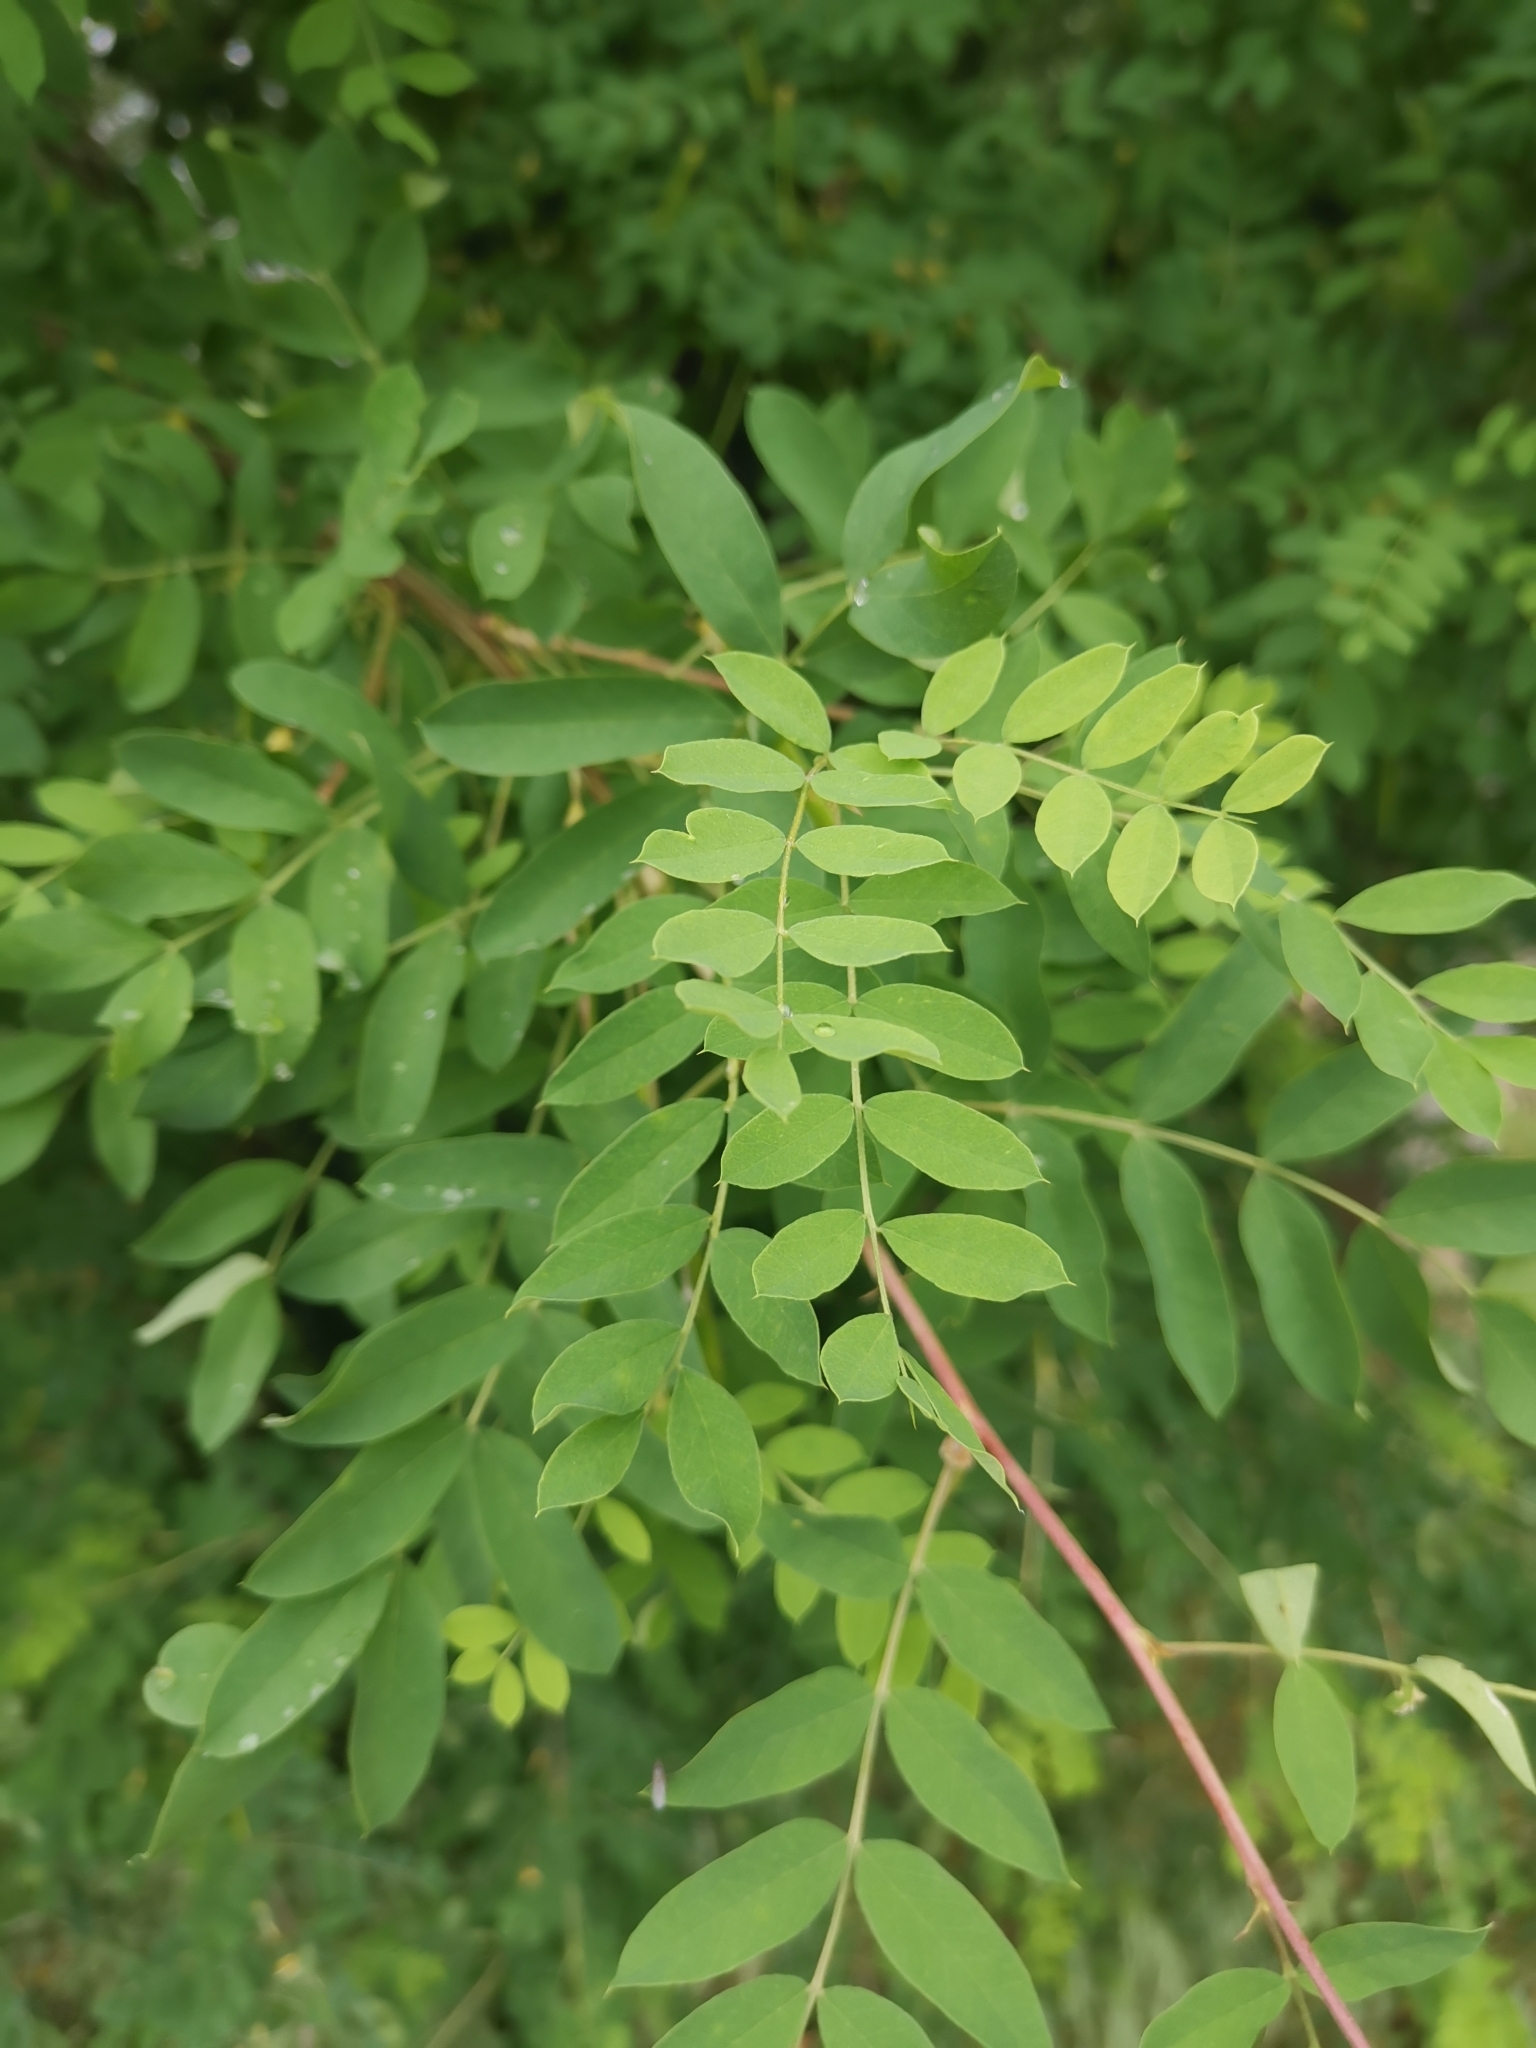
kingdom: Plantae
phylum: Tracheophyta
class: Magnoliopsida
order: Fabales
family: Fabaceae
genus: Caragana
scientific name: Caragana arborescens
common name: Siberian peashrub
